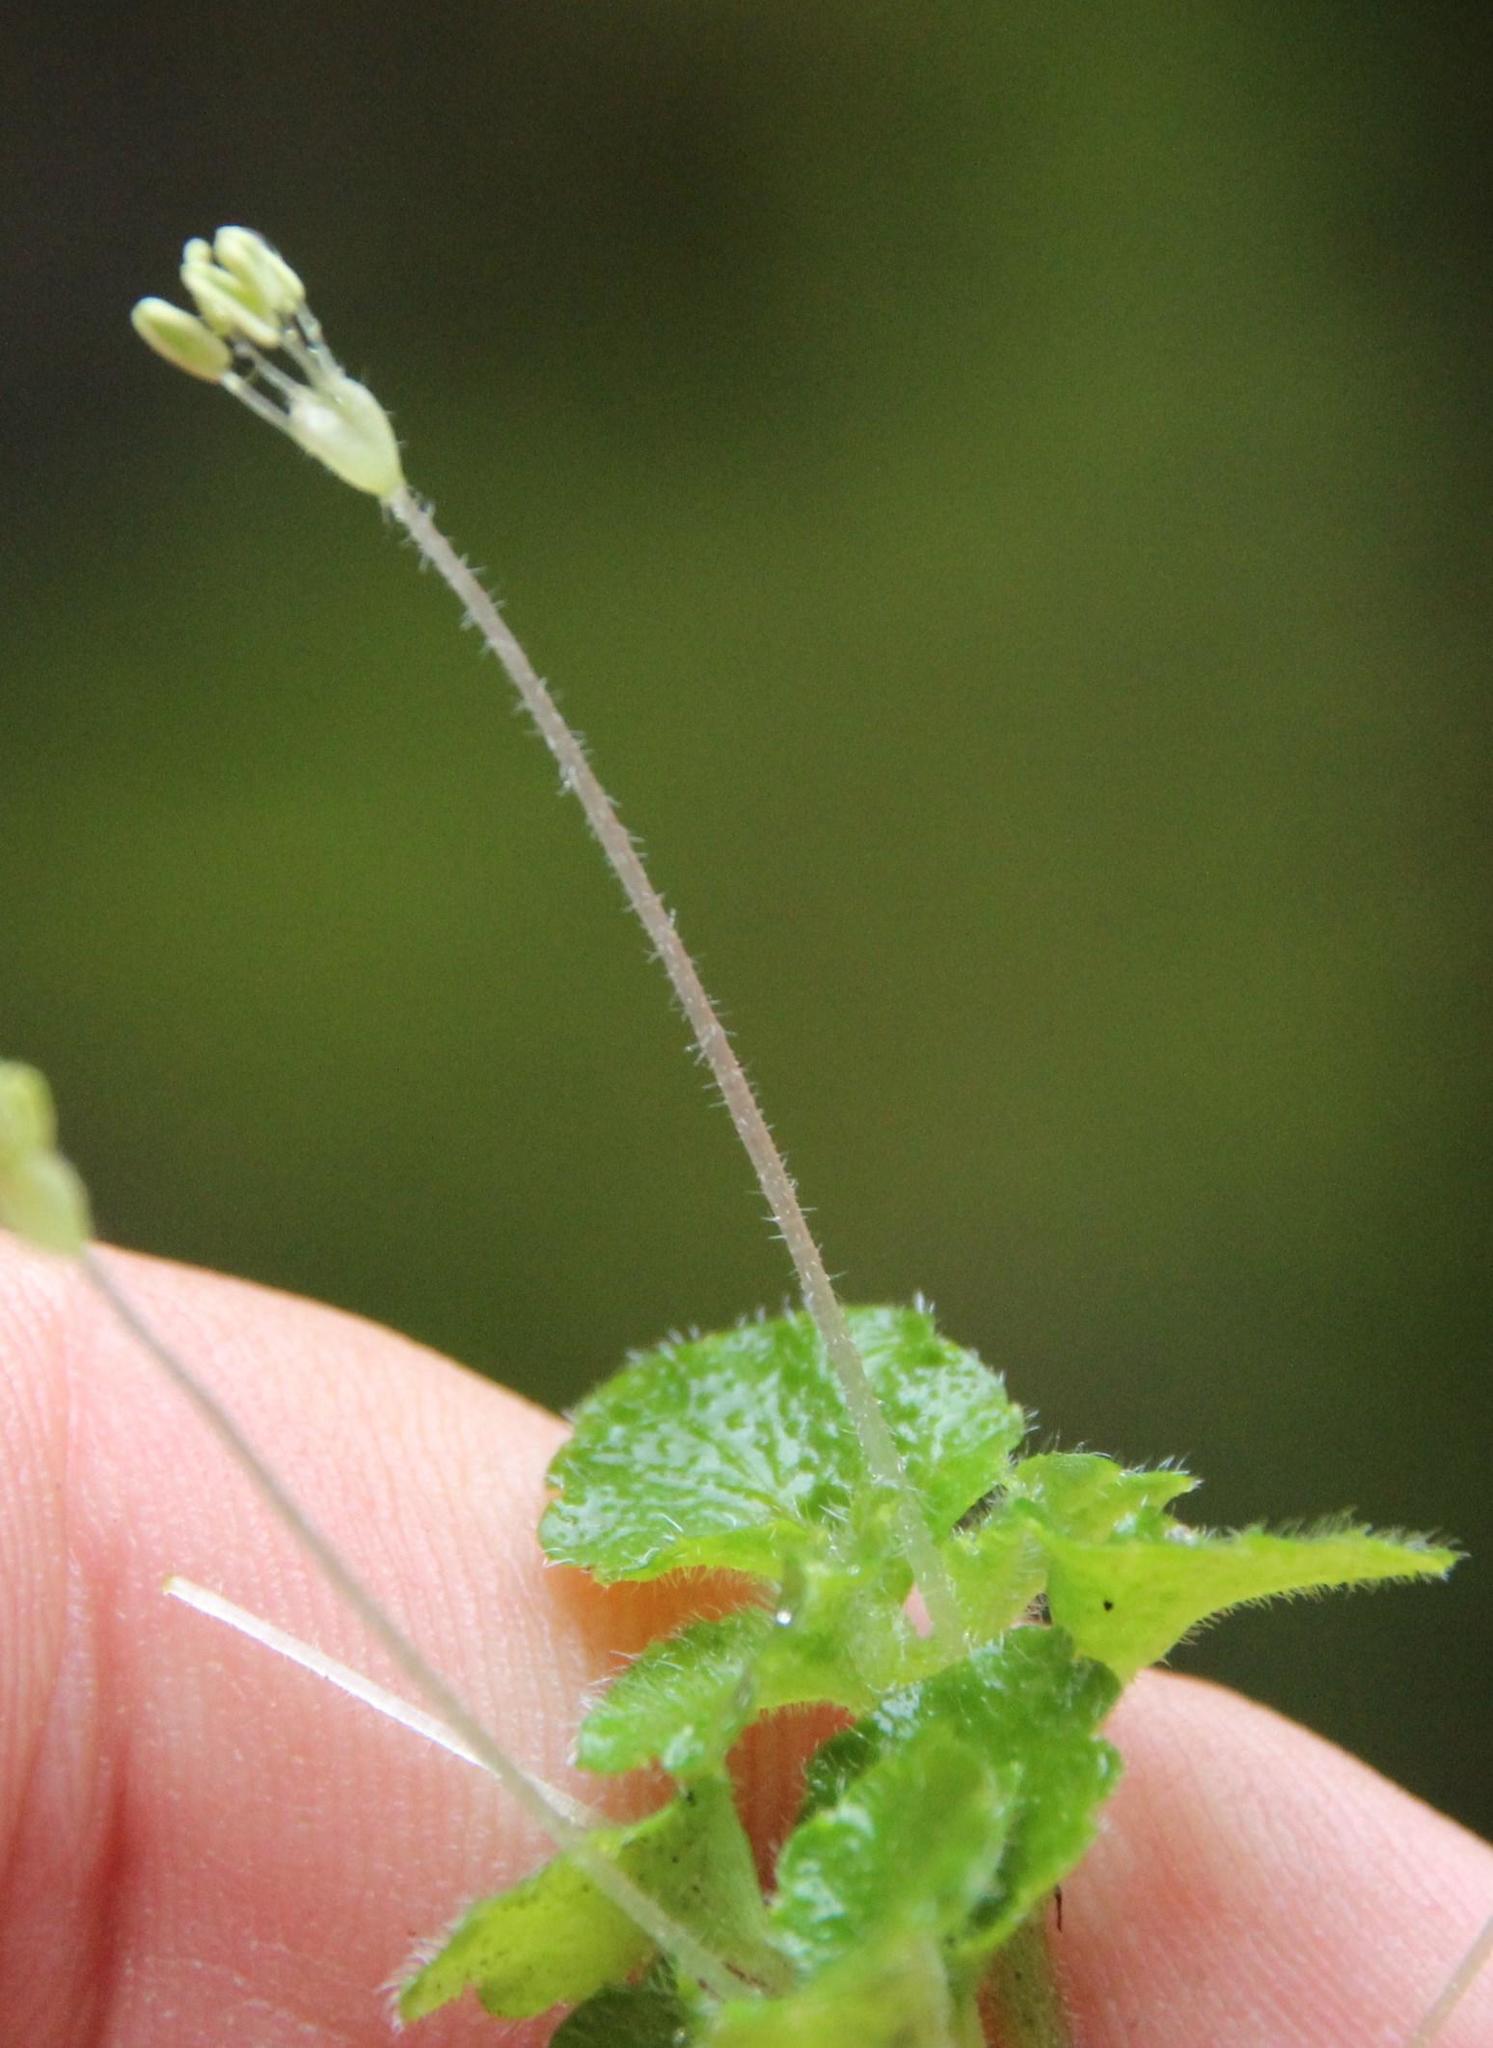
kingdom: Plantae
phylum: Tracheophyta
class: Magnoliopsida
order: Malpighiales
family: Euphorbiaceae
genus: Dysopsis
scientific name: Dysopsis glechomoides
